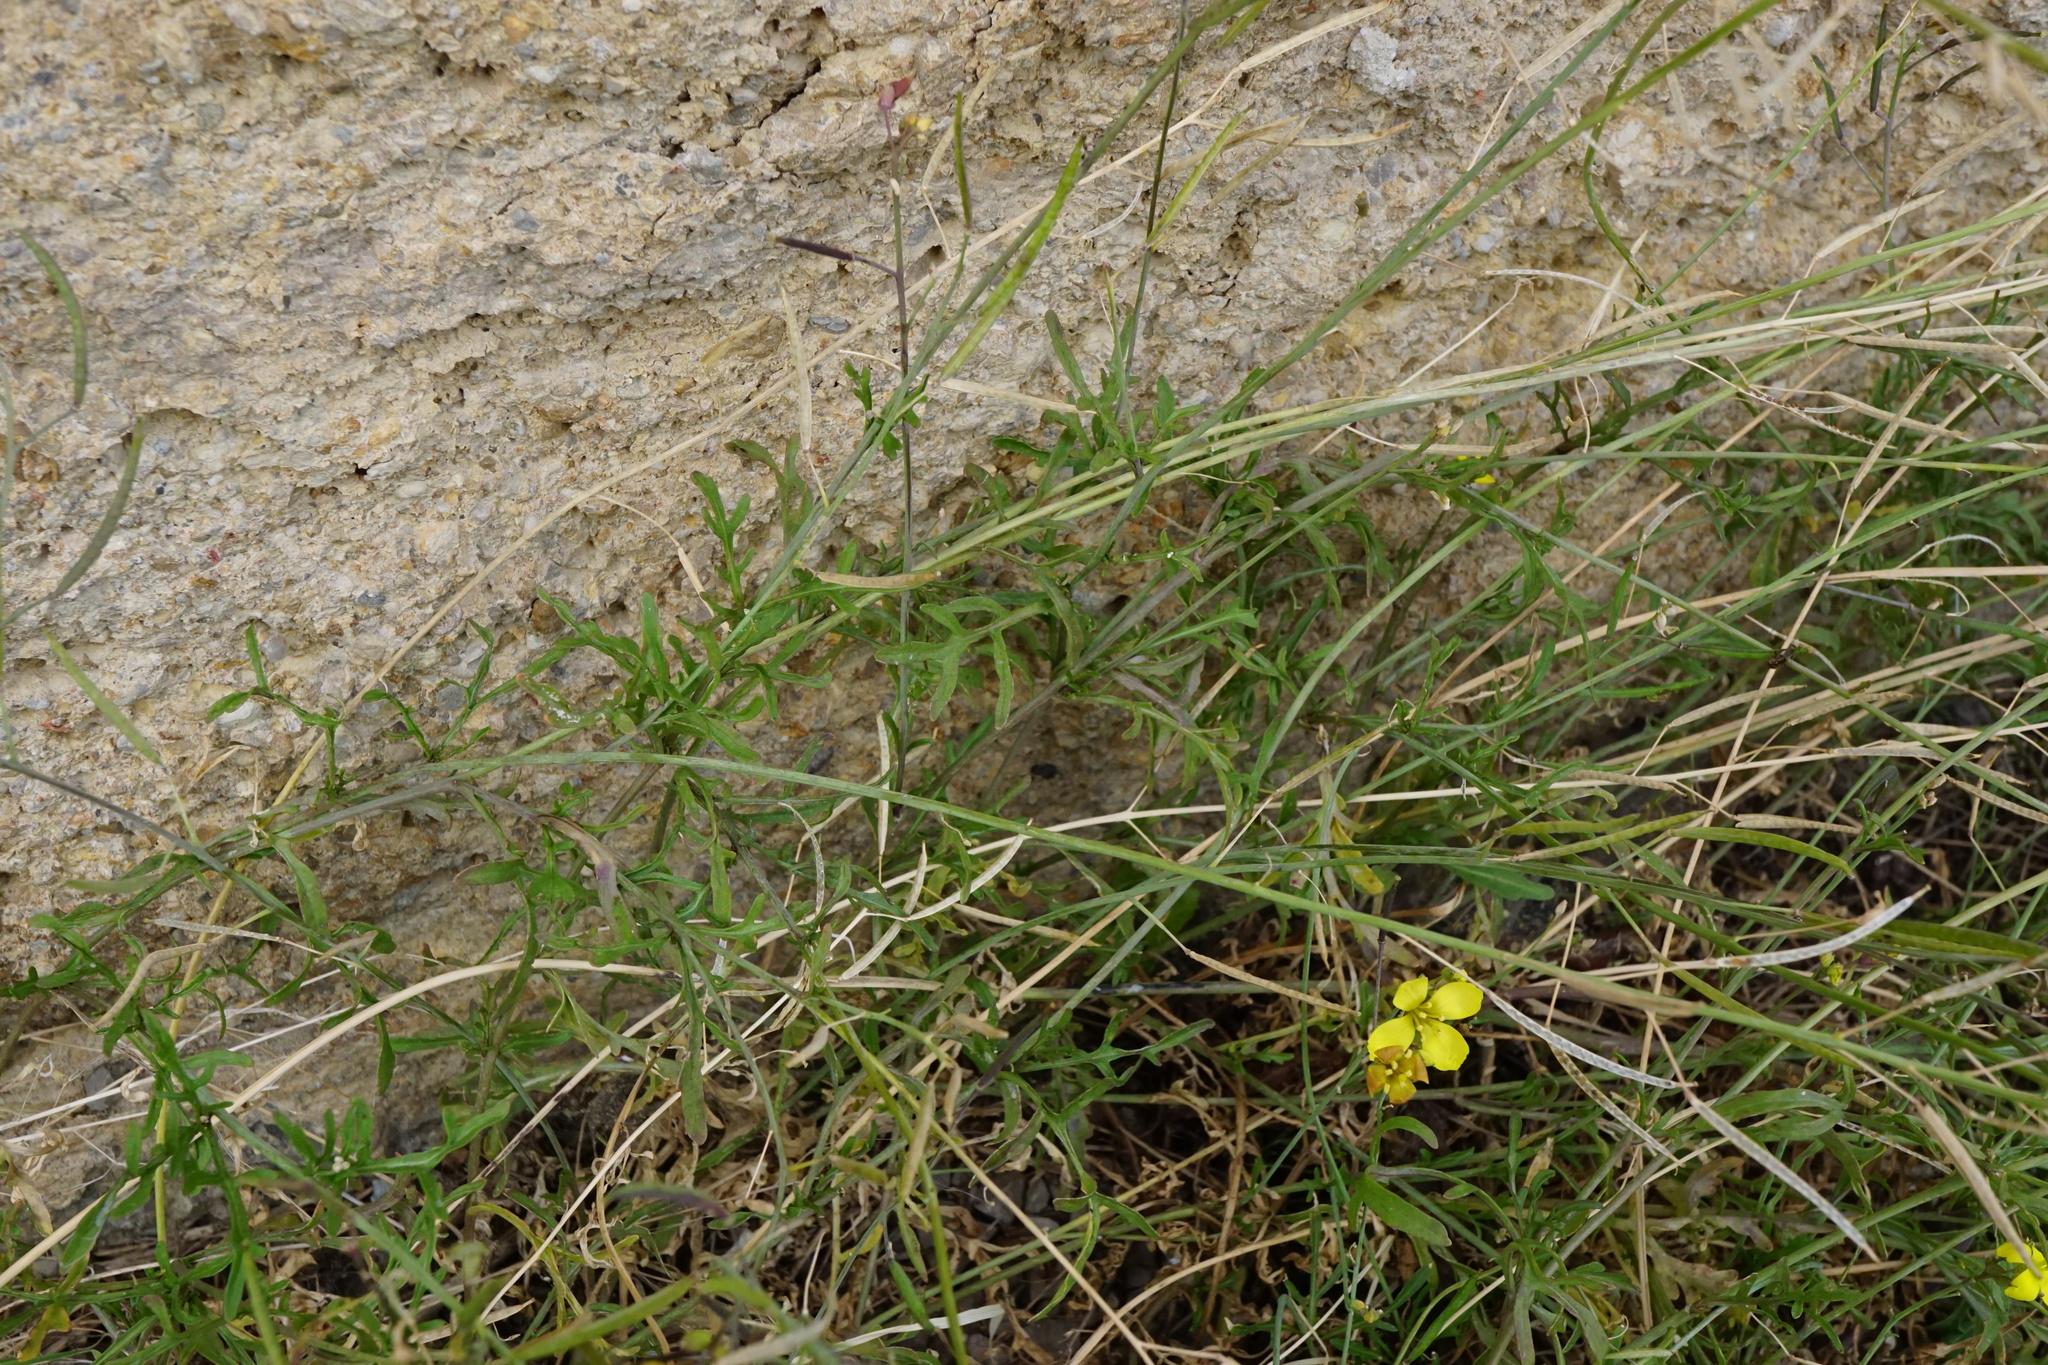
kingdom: Plantae
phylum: Tracheophyta
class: Magnoliopsida
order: Brassicales
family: Brassicaceae
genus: Diplotaxis
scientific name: Diplotaxis tenuifolia
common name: Perennial wall-rocket
